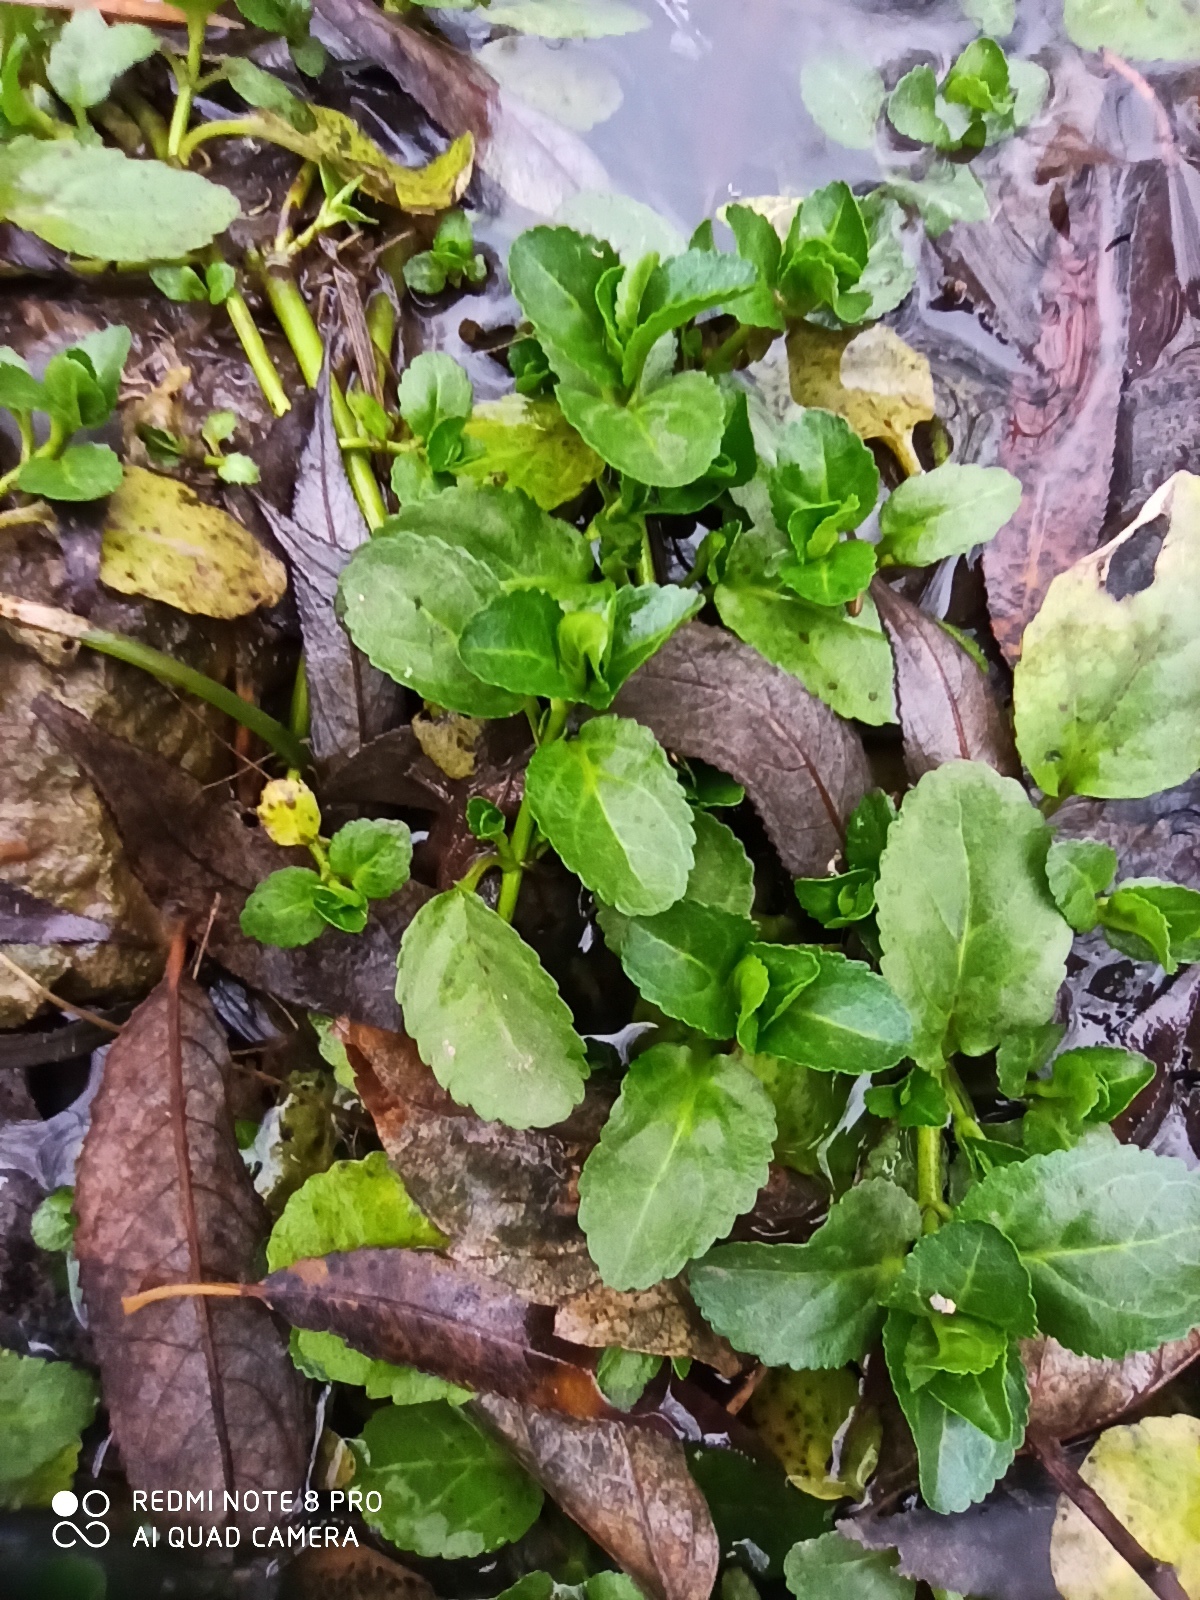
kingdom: Plantae
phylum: Tracheophyta
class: Magnoliopsida
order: Lamiales
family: Plantaginaceae
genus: Veronica
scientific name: Veronica beccabunga
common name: Brooklime
